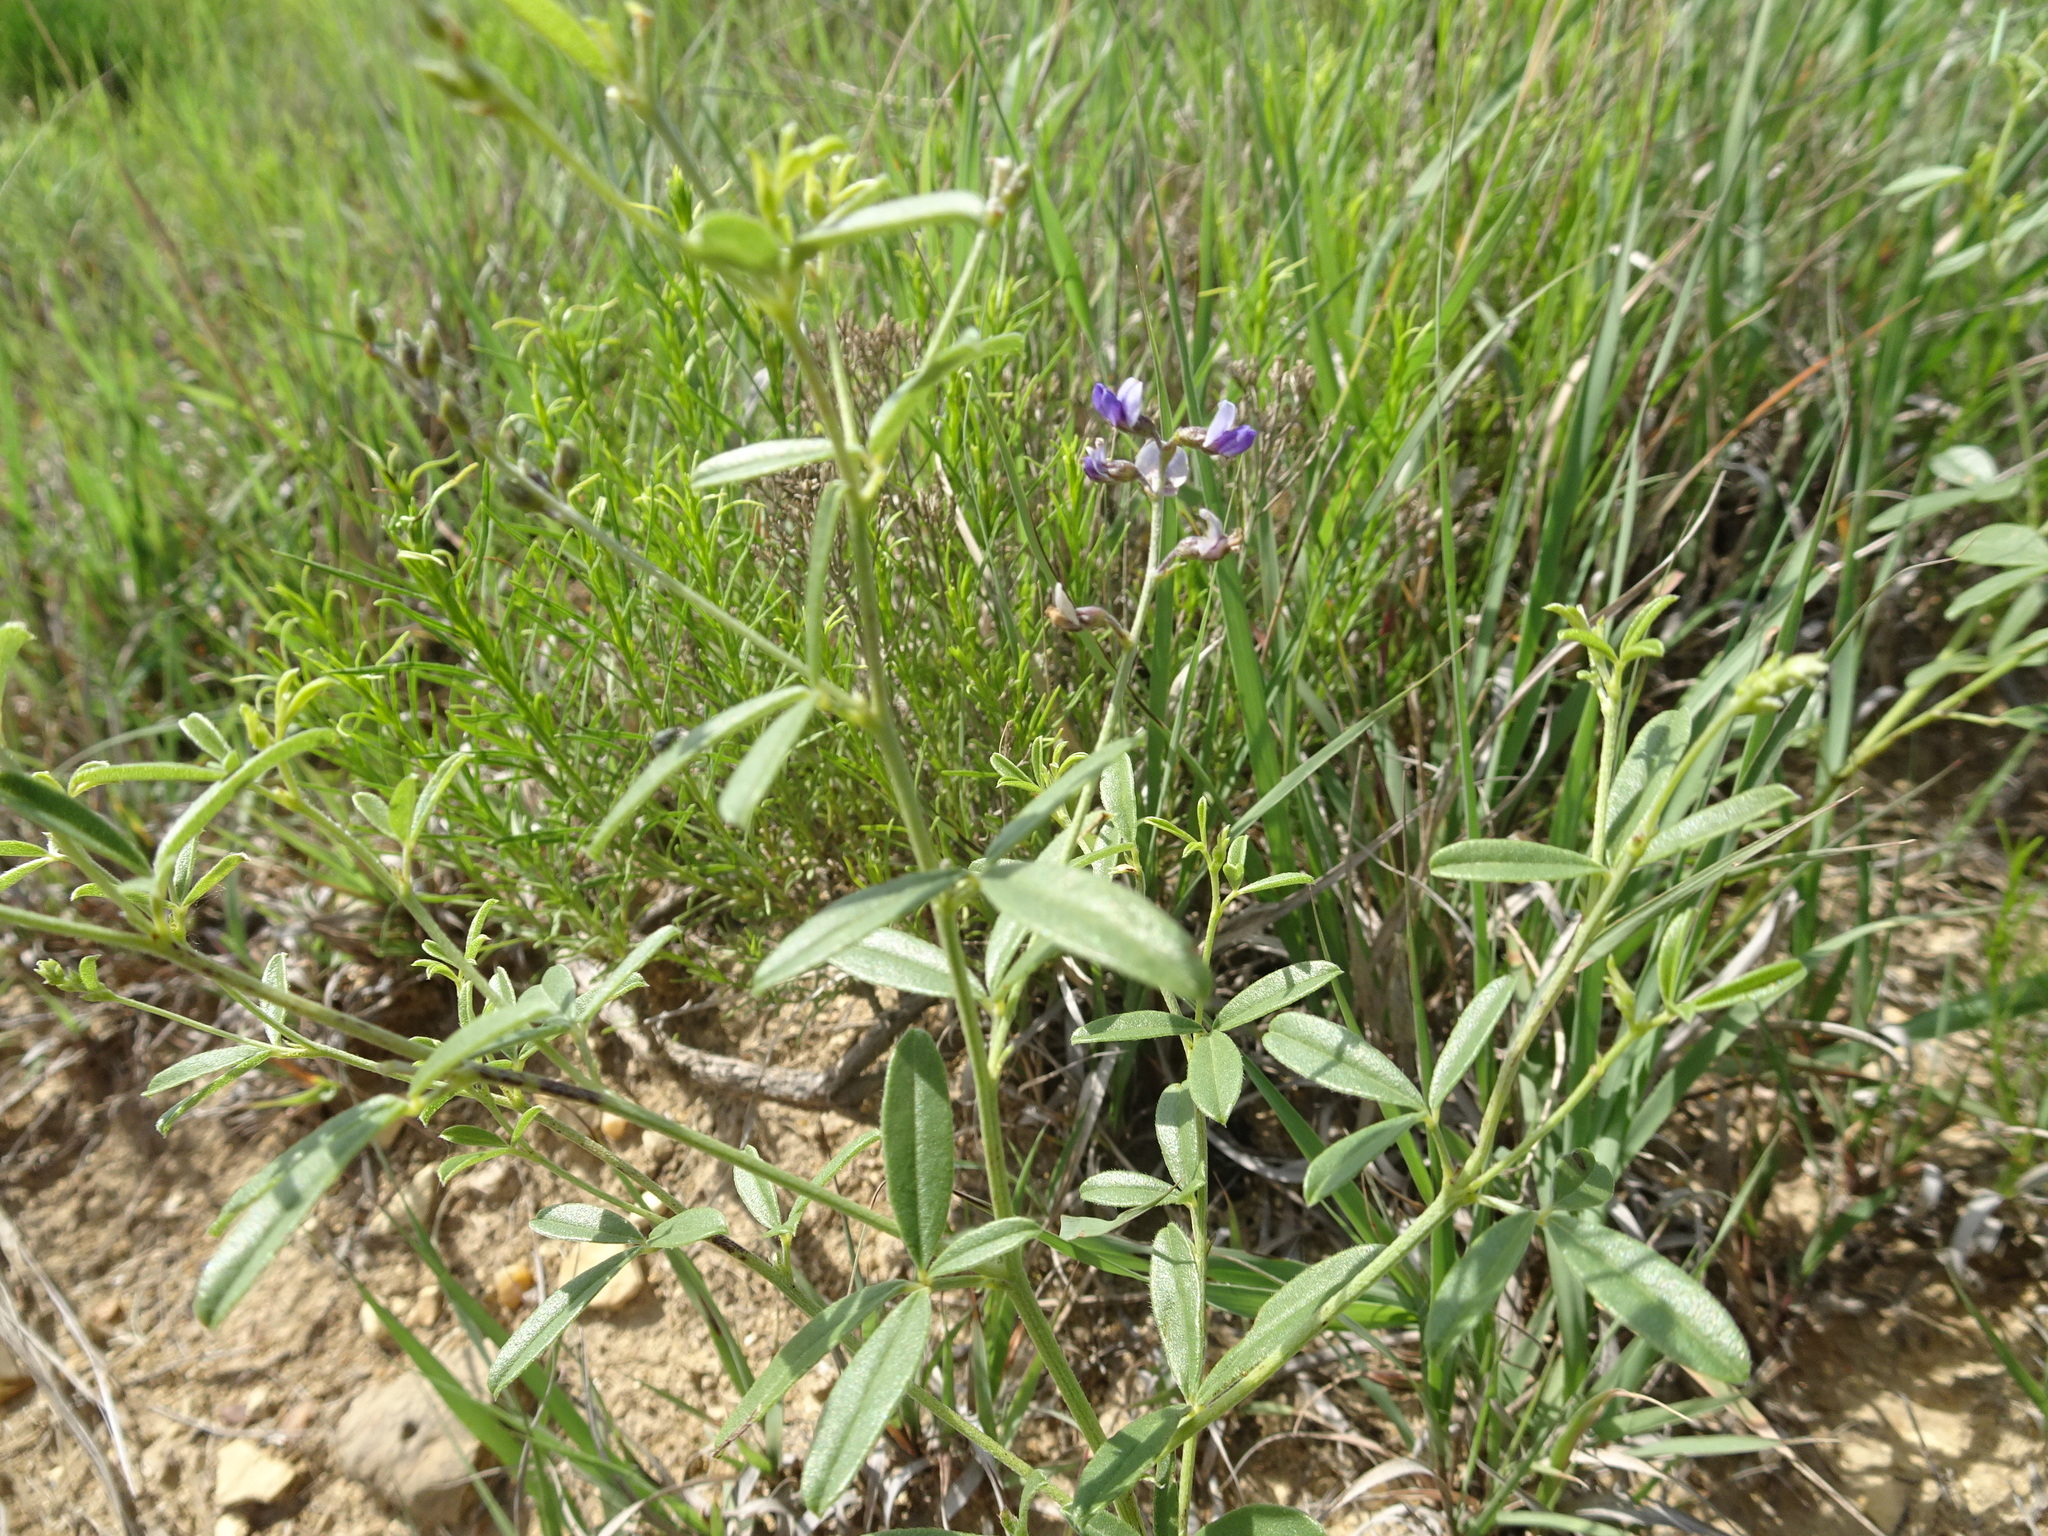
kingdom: Plantae
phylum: Tracheophyta
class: Magnoliopsida
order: Fabales
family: Fabaceae
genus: Pediomelum
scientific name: Pediomelum tenuiflorum
